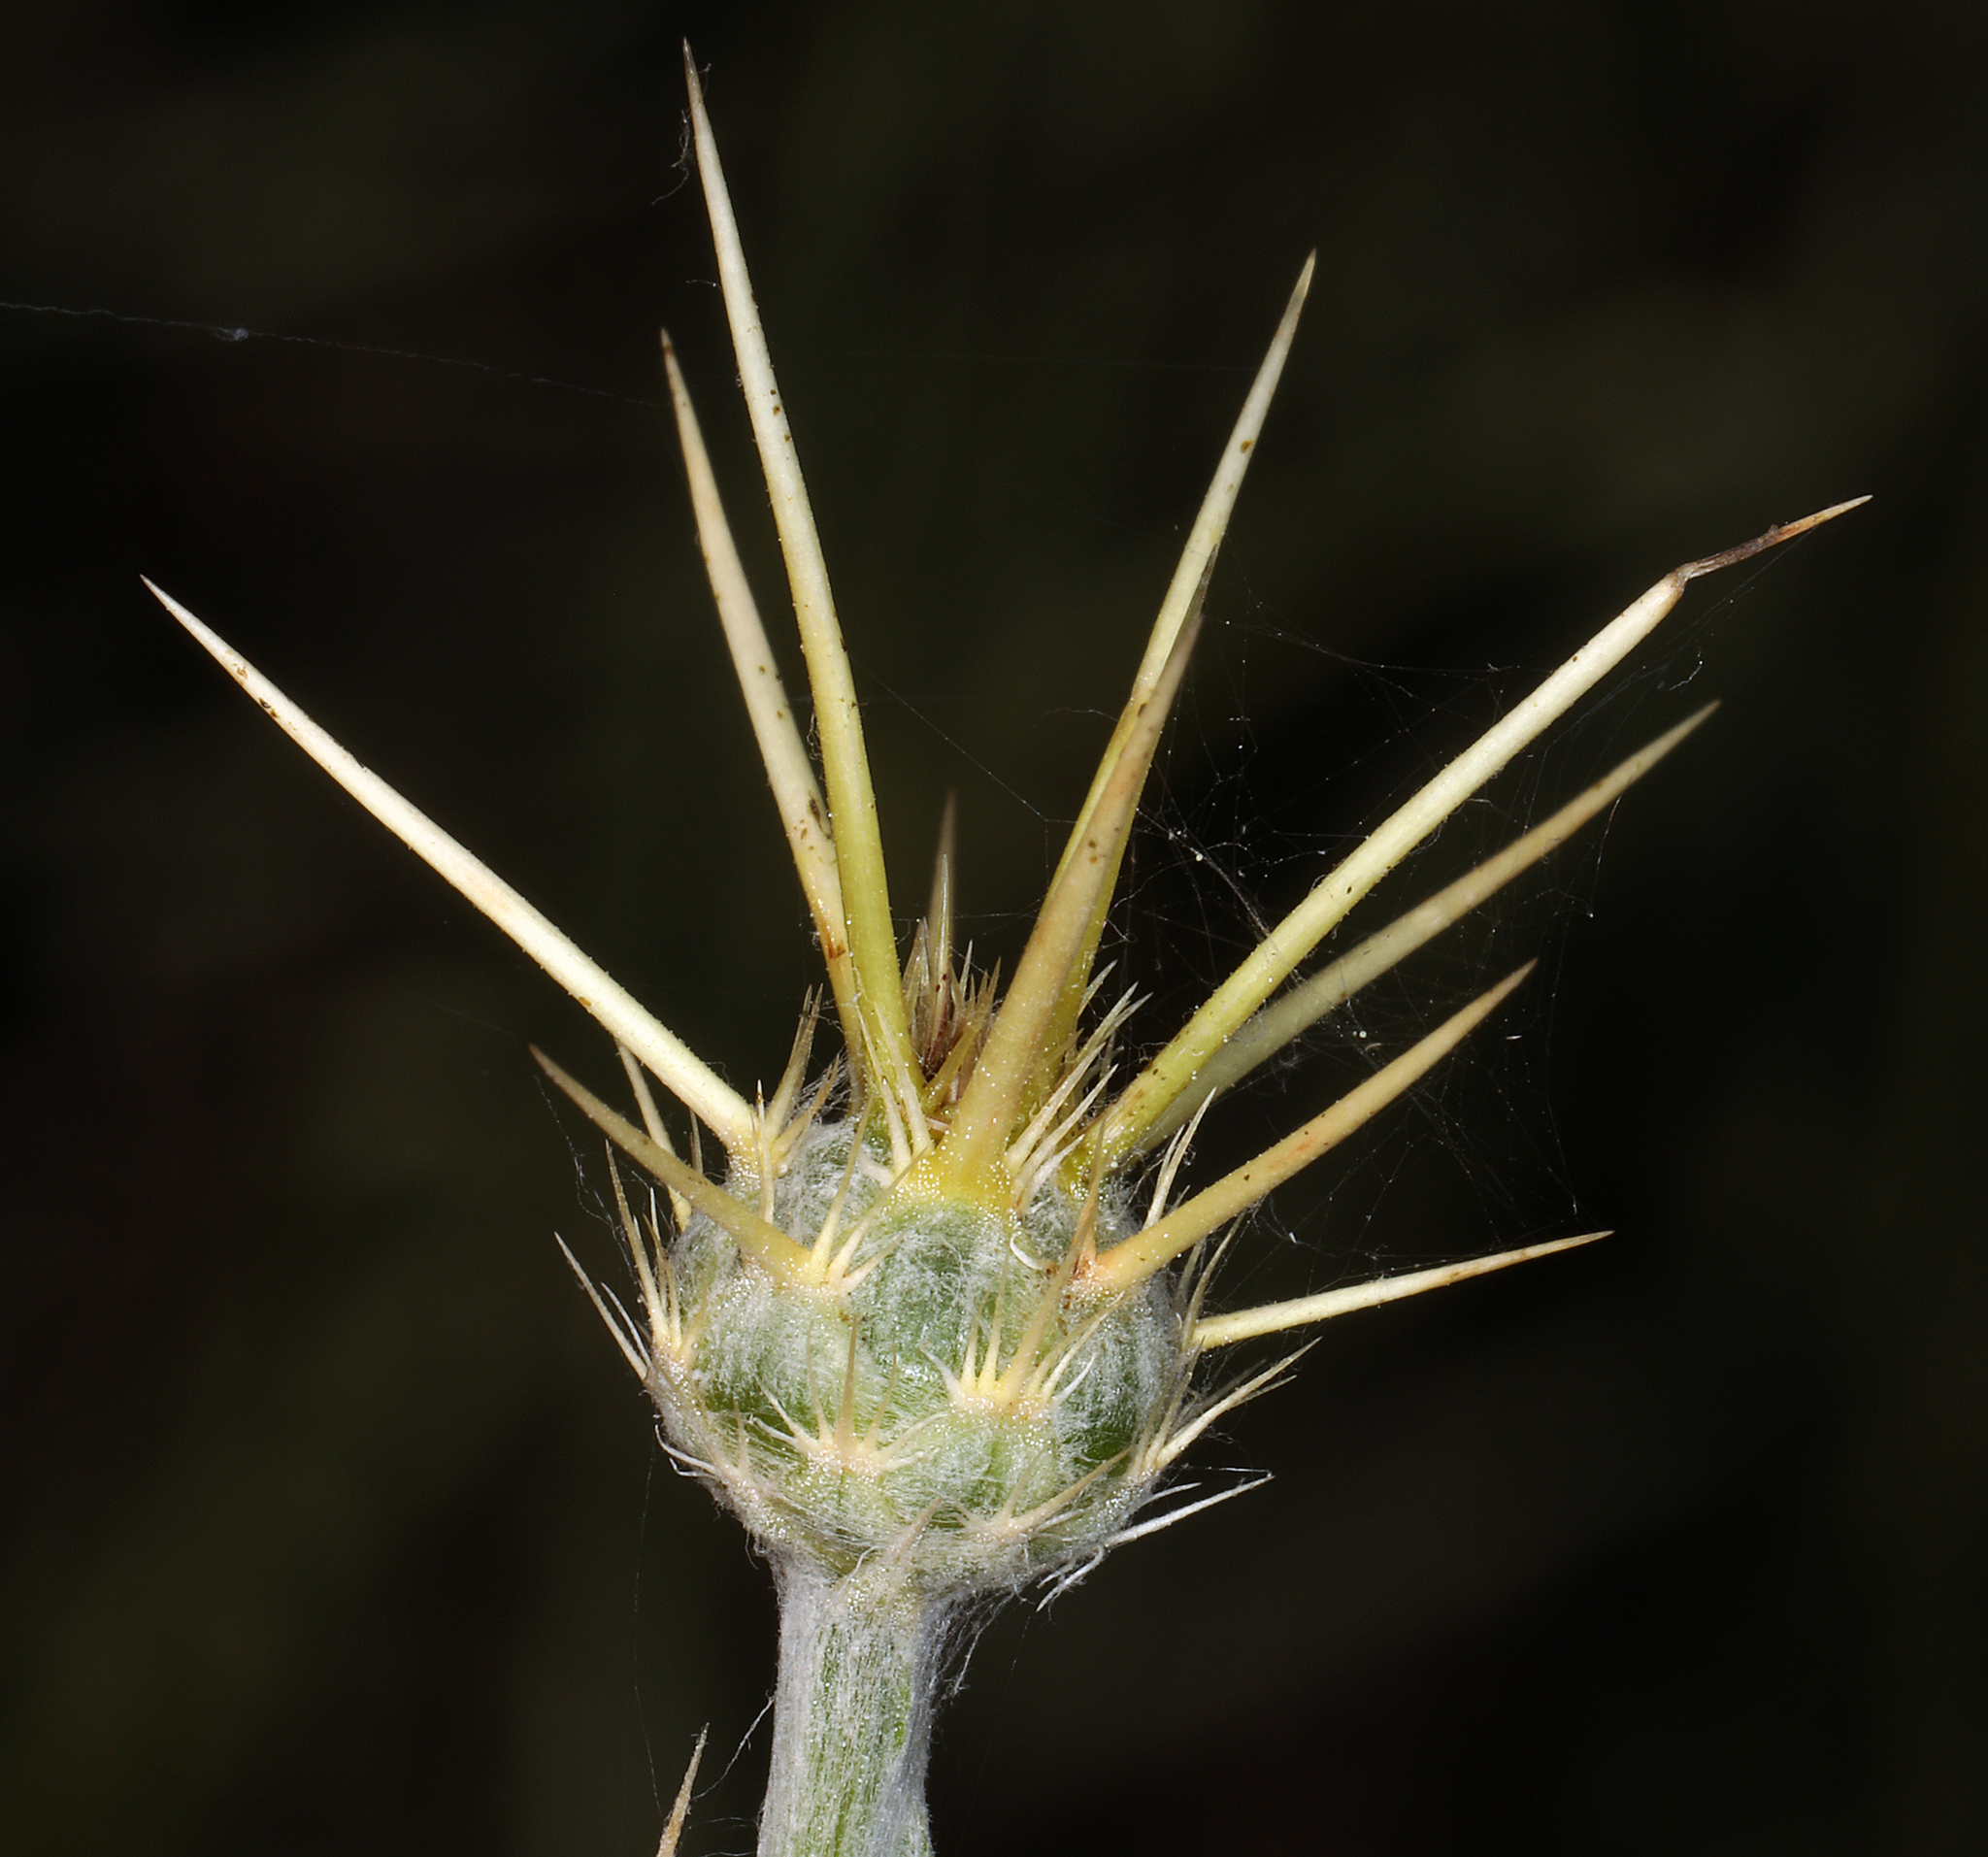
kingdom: Plantae
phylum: Tracheophyta
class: Magnoliopsida
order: Asterales
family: Asteraceae
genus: Centaurea
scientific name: Centaurea solstitialis
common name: Yellow star-thistle
